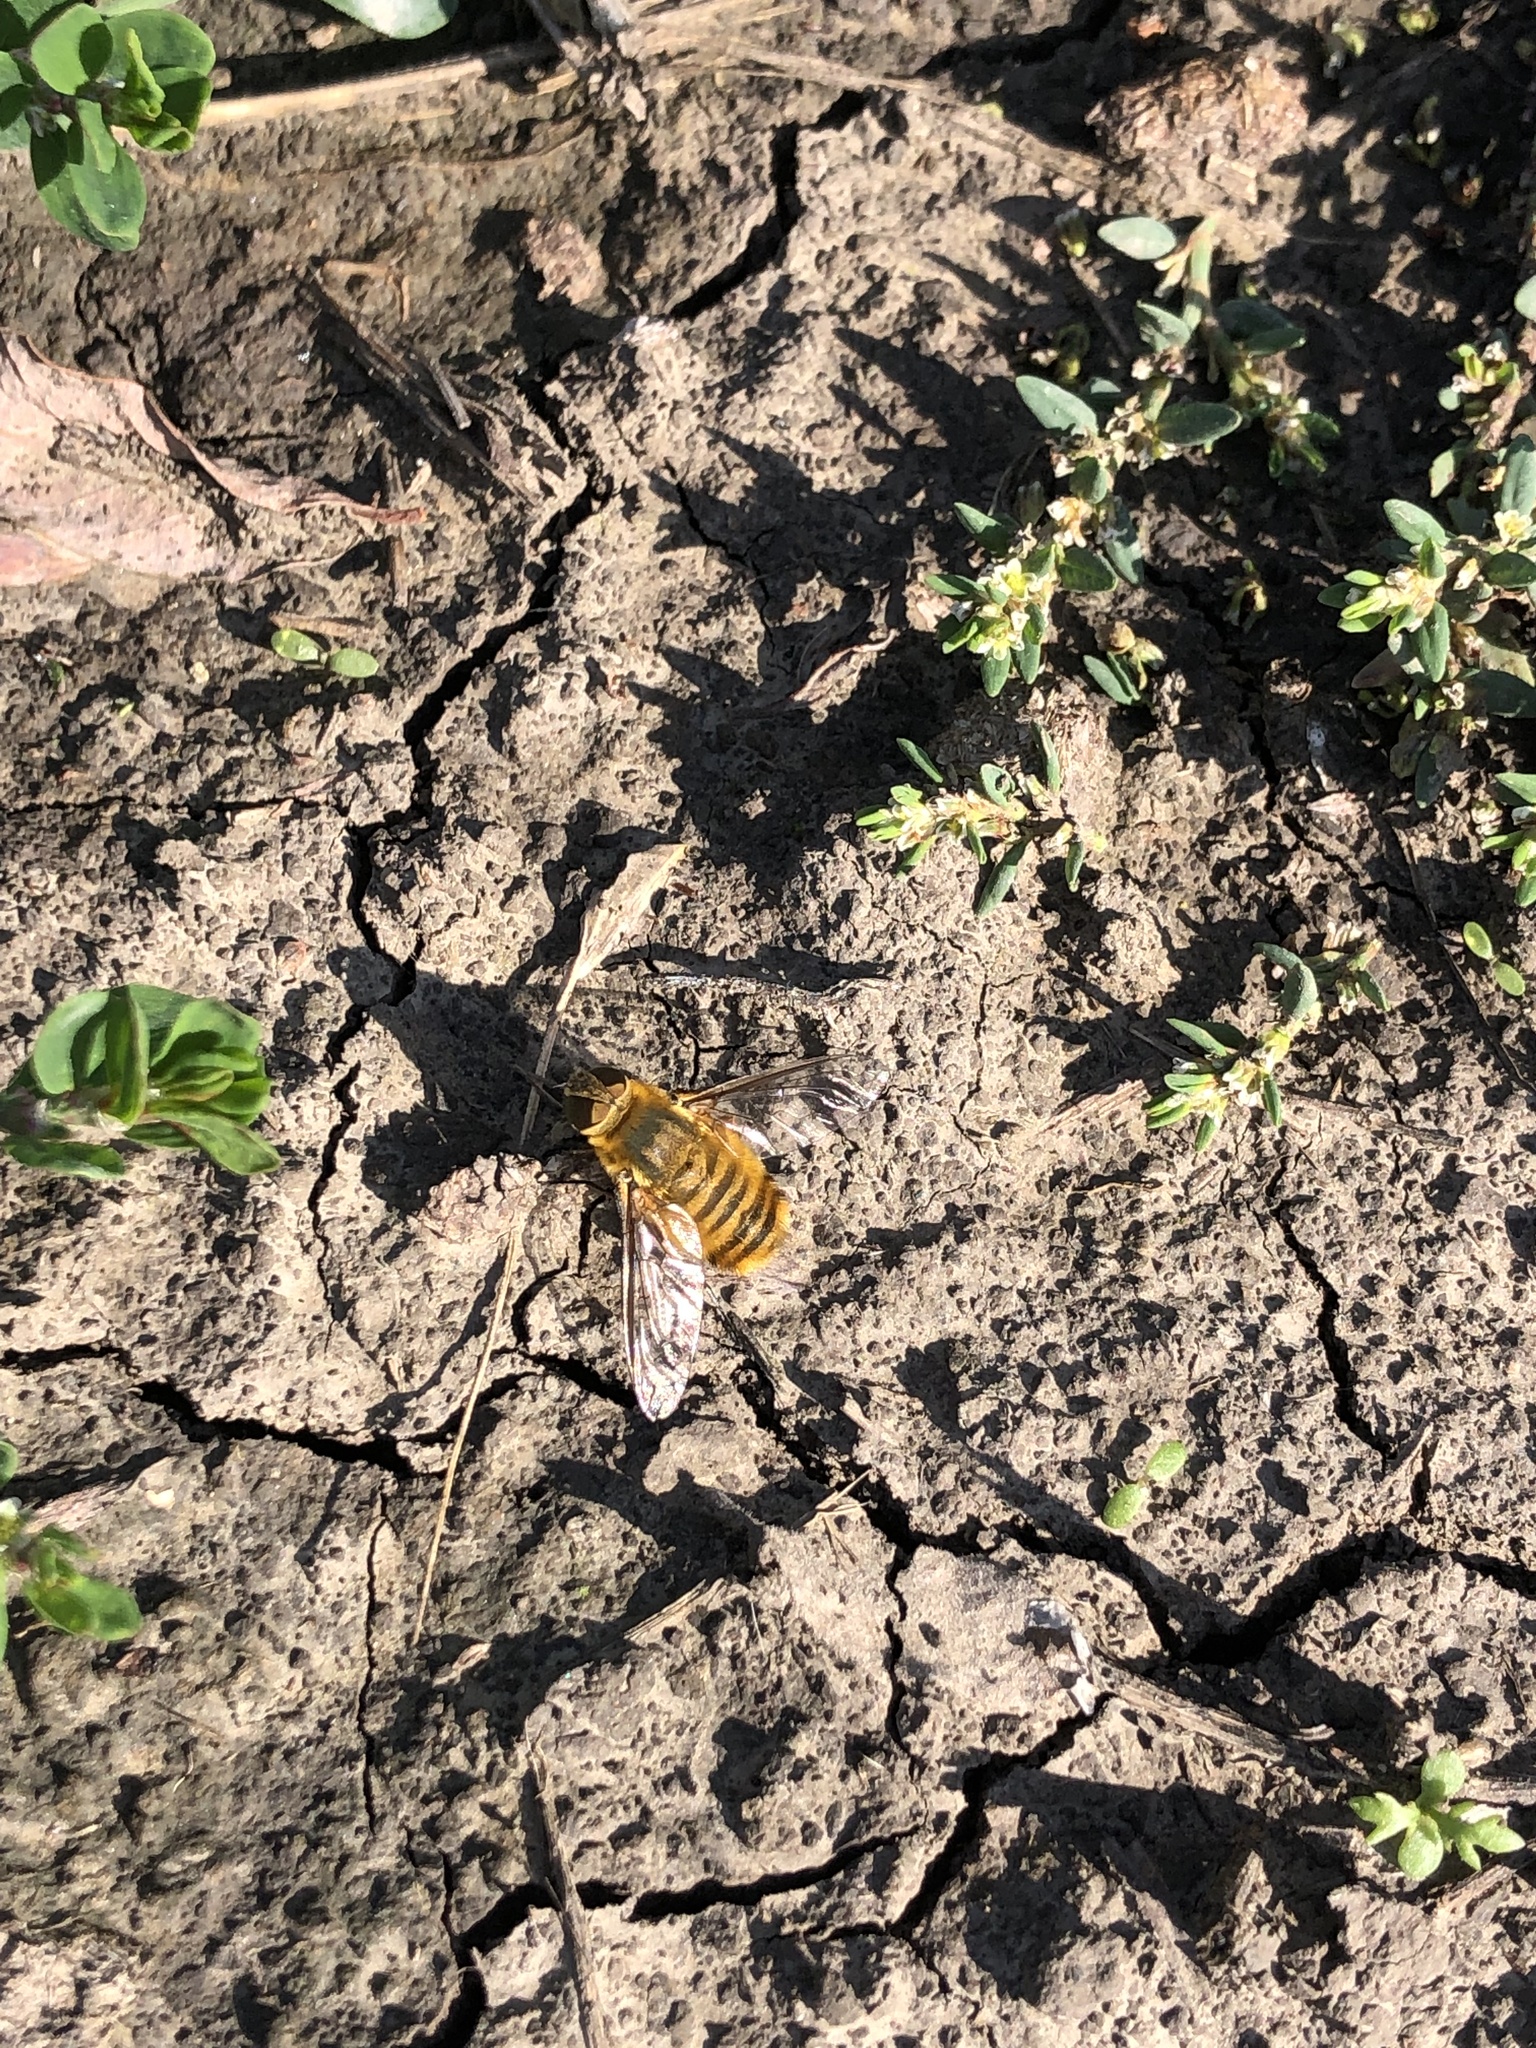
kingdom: Animalia
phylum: Arthropoda
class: Insecta
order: Diptera
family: Bombyliidae
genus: Villa
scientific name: Villa hottentotta
